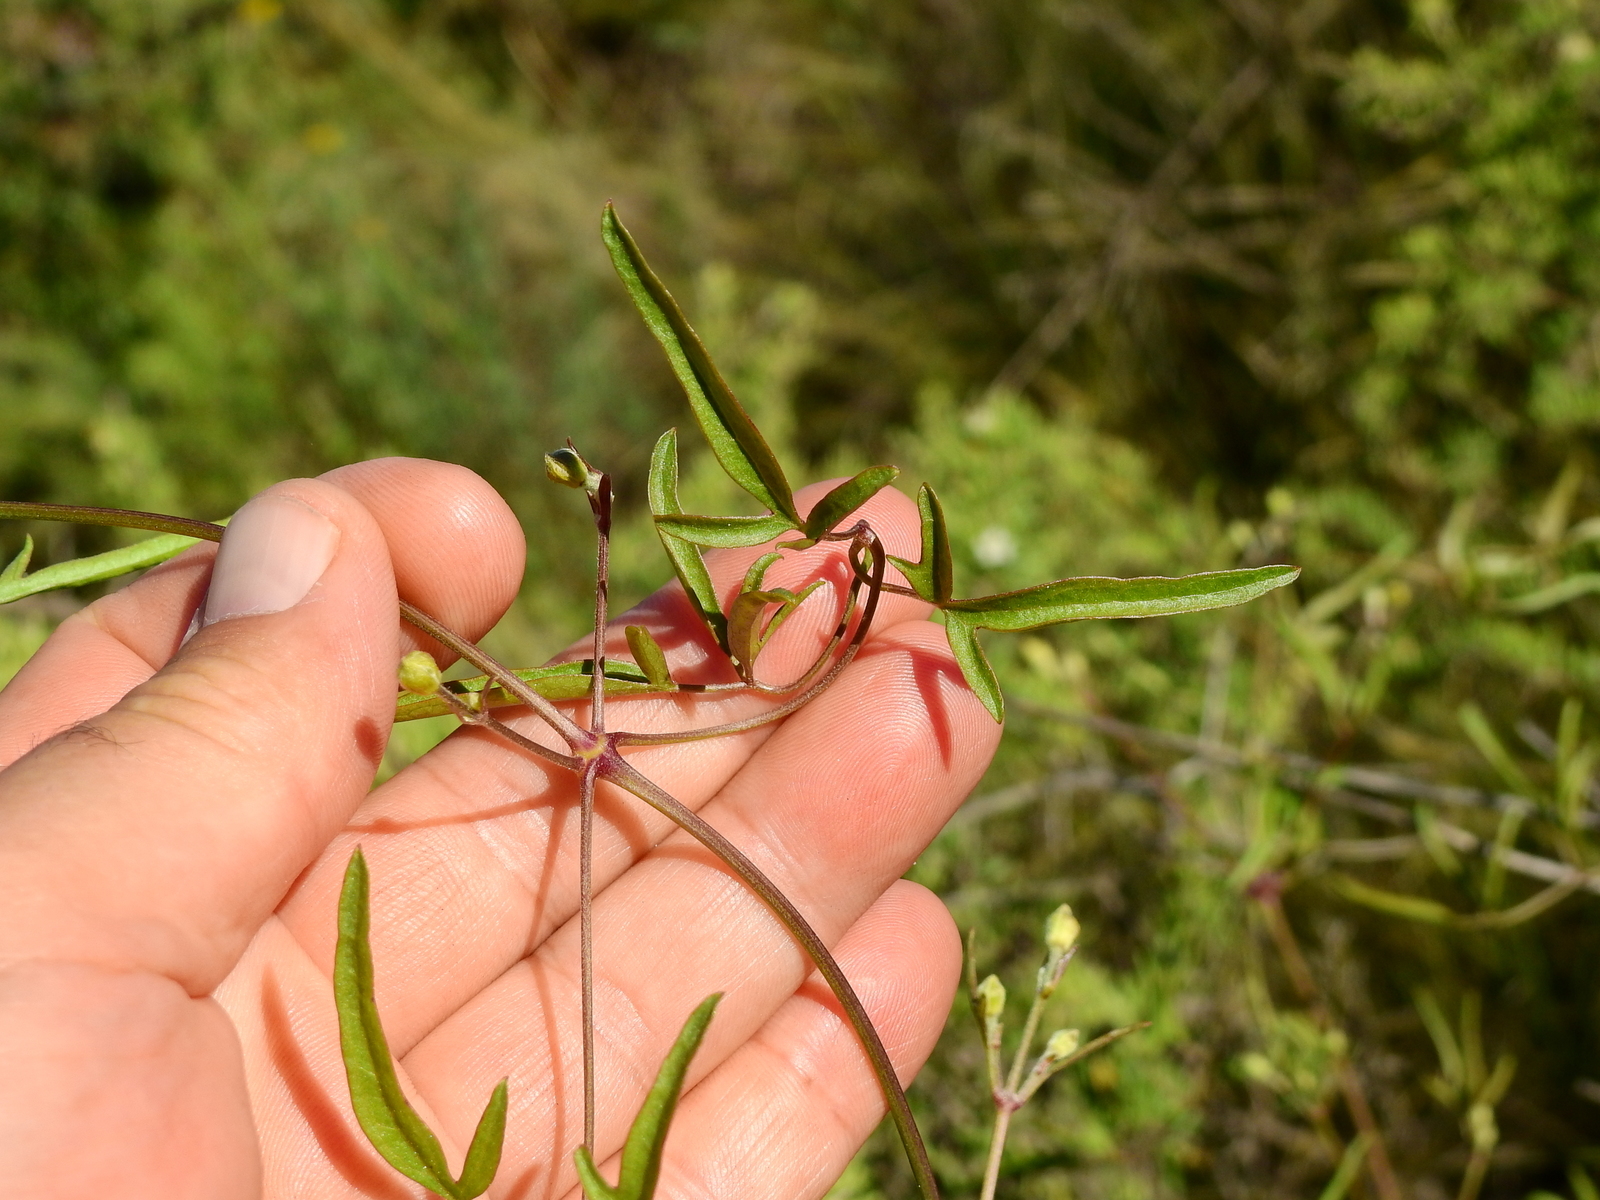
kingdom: Plantae
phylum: Tracheophyta
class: Magnoliopsida
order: Ranunculales
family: Ranunculaceae
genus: Clematis
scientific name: Clematis montevidensis
